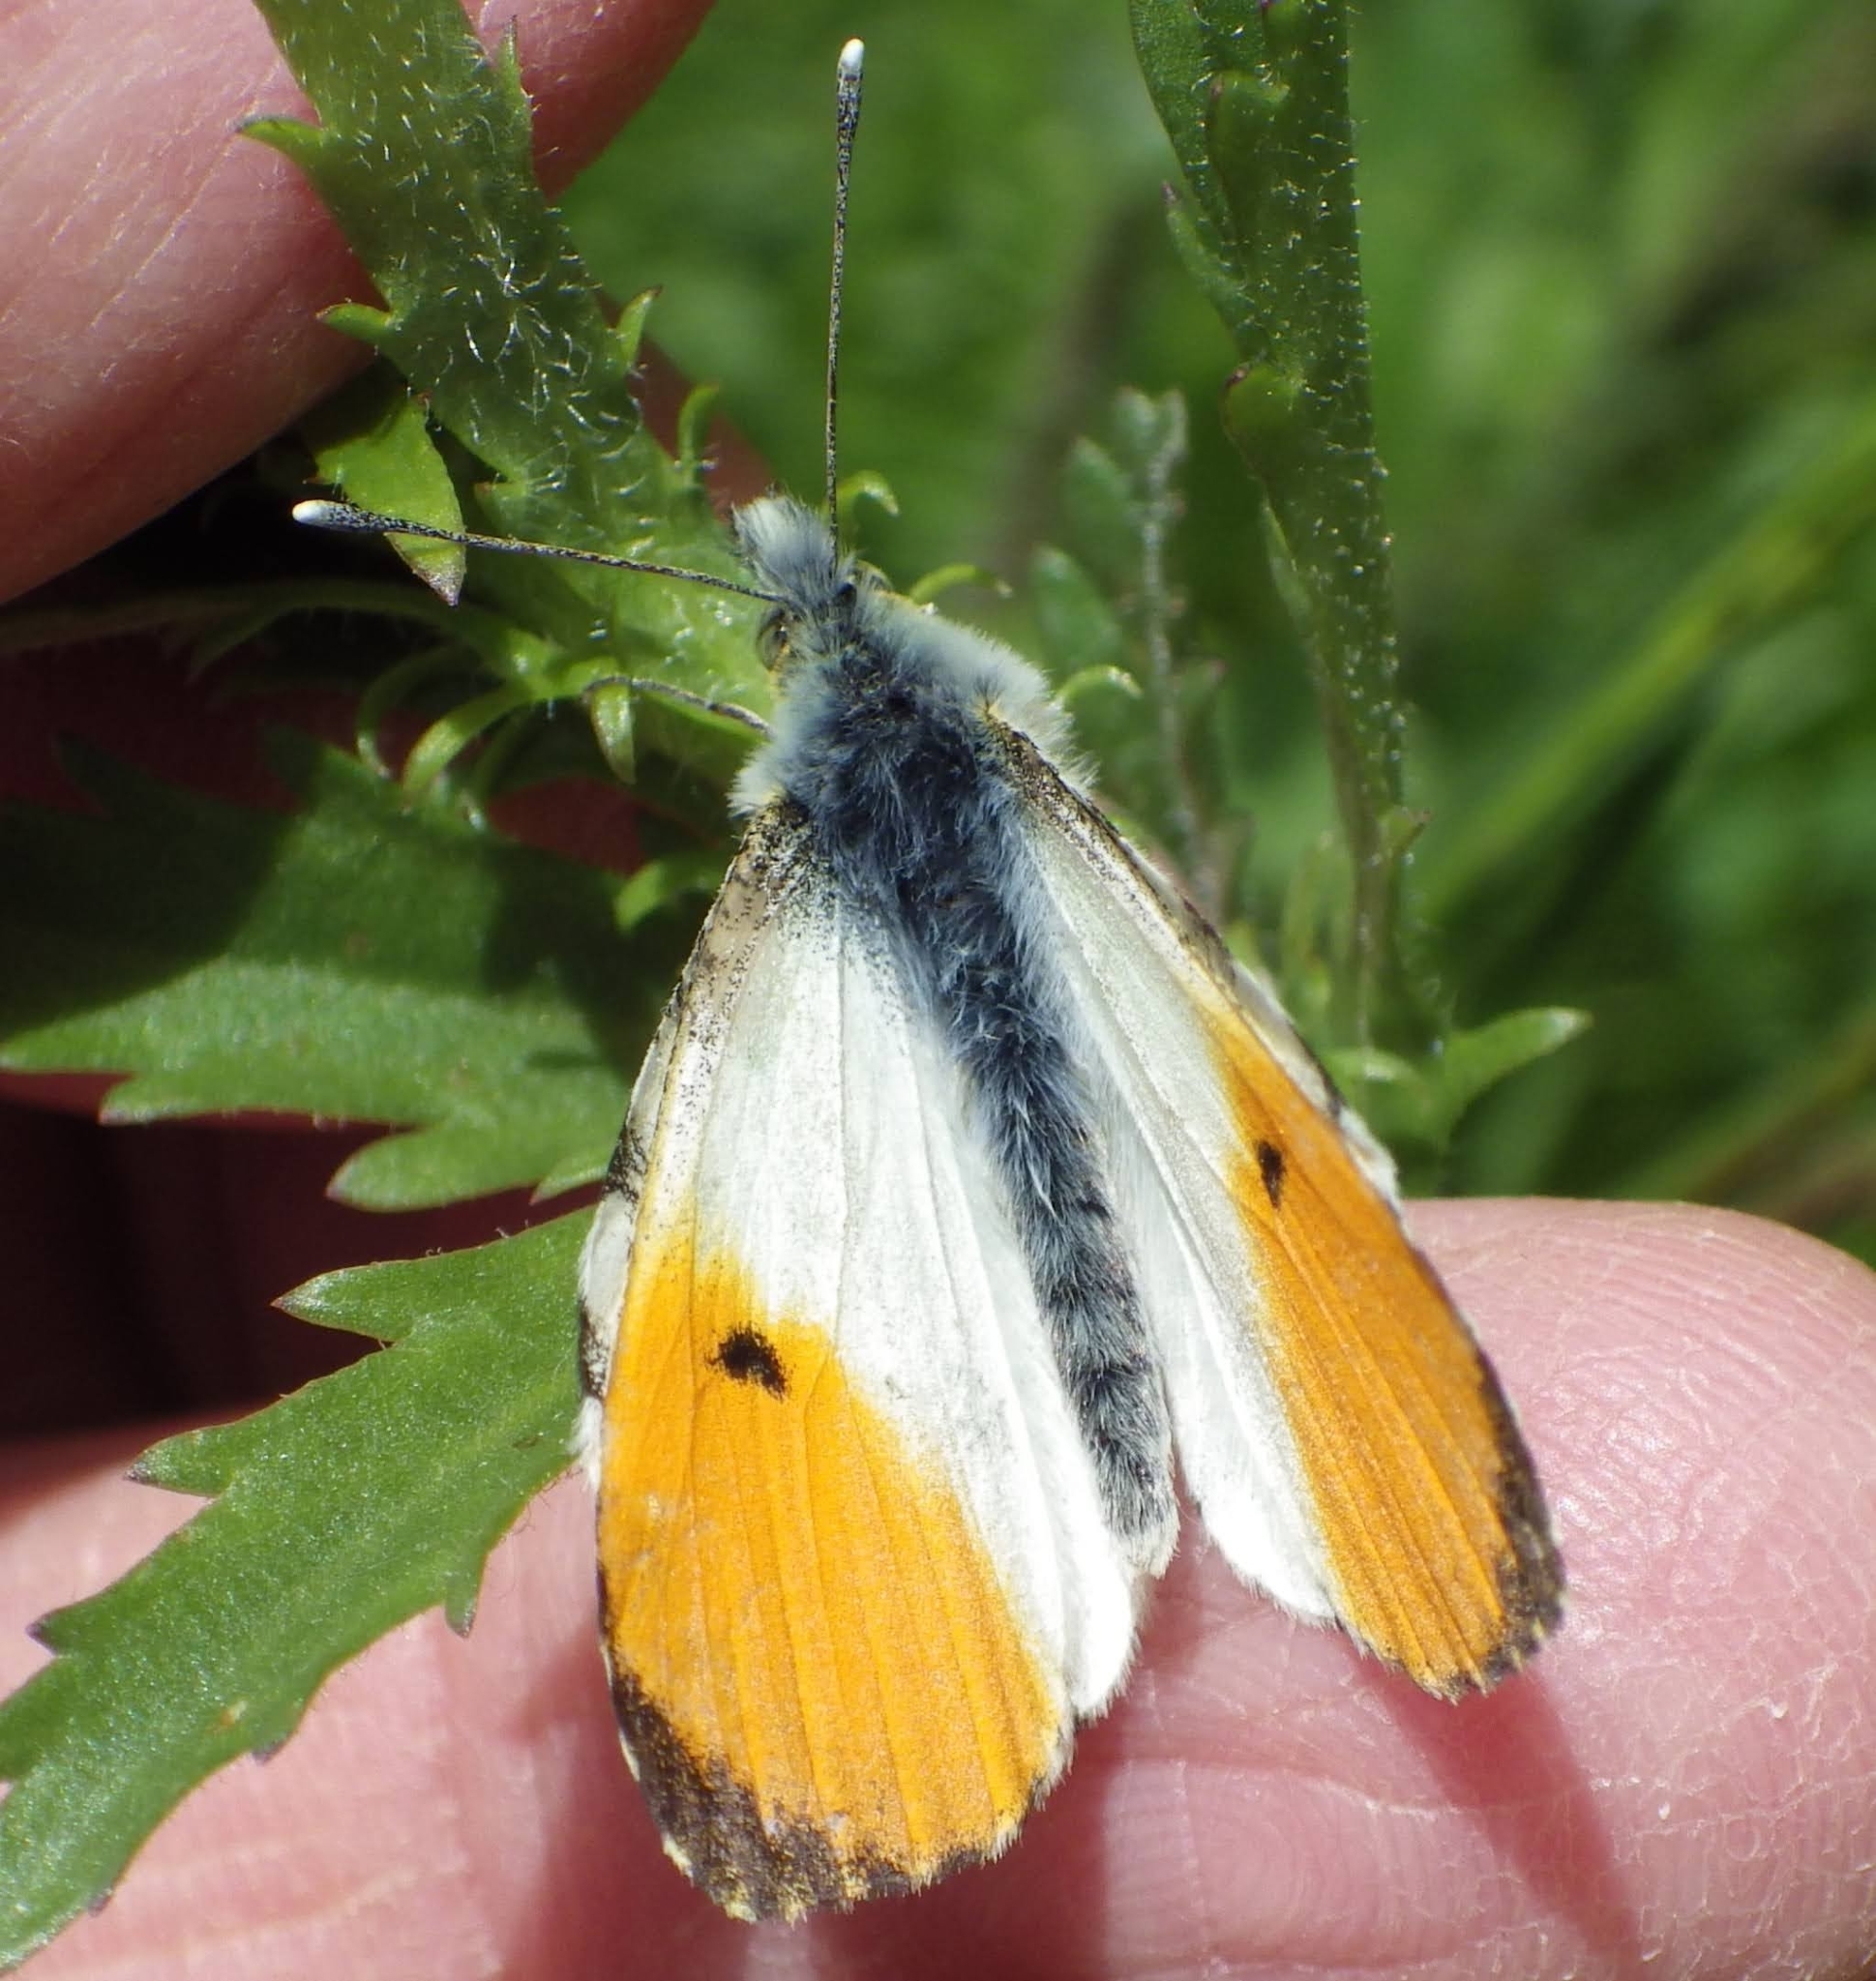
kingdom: Animalia
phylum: Arthropoda
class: Insecta
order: Lepidoptera
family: Pieridae
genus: Anthocharis
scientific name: Anthocharis cardamines
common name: Orange-tip
